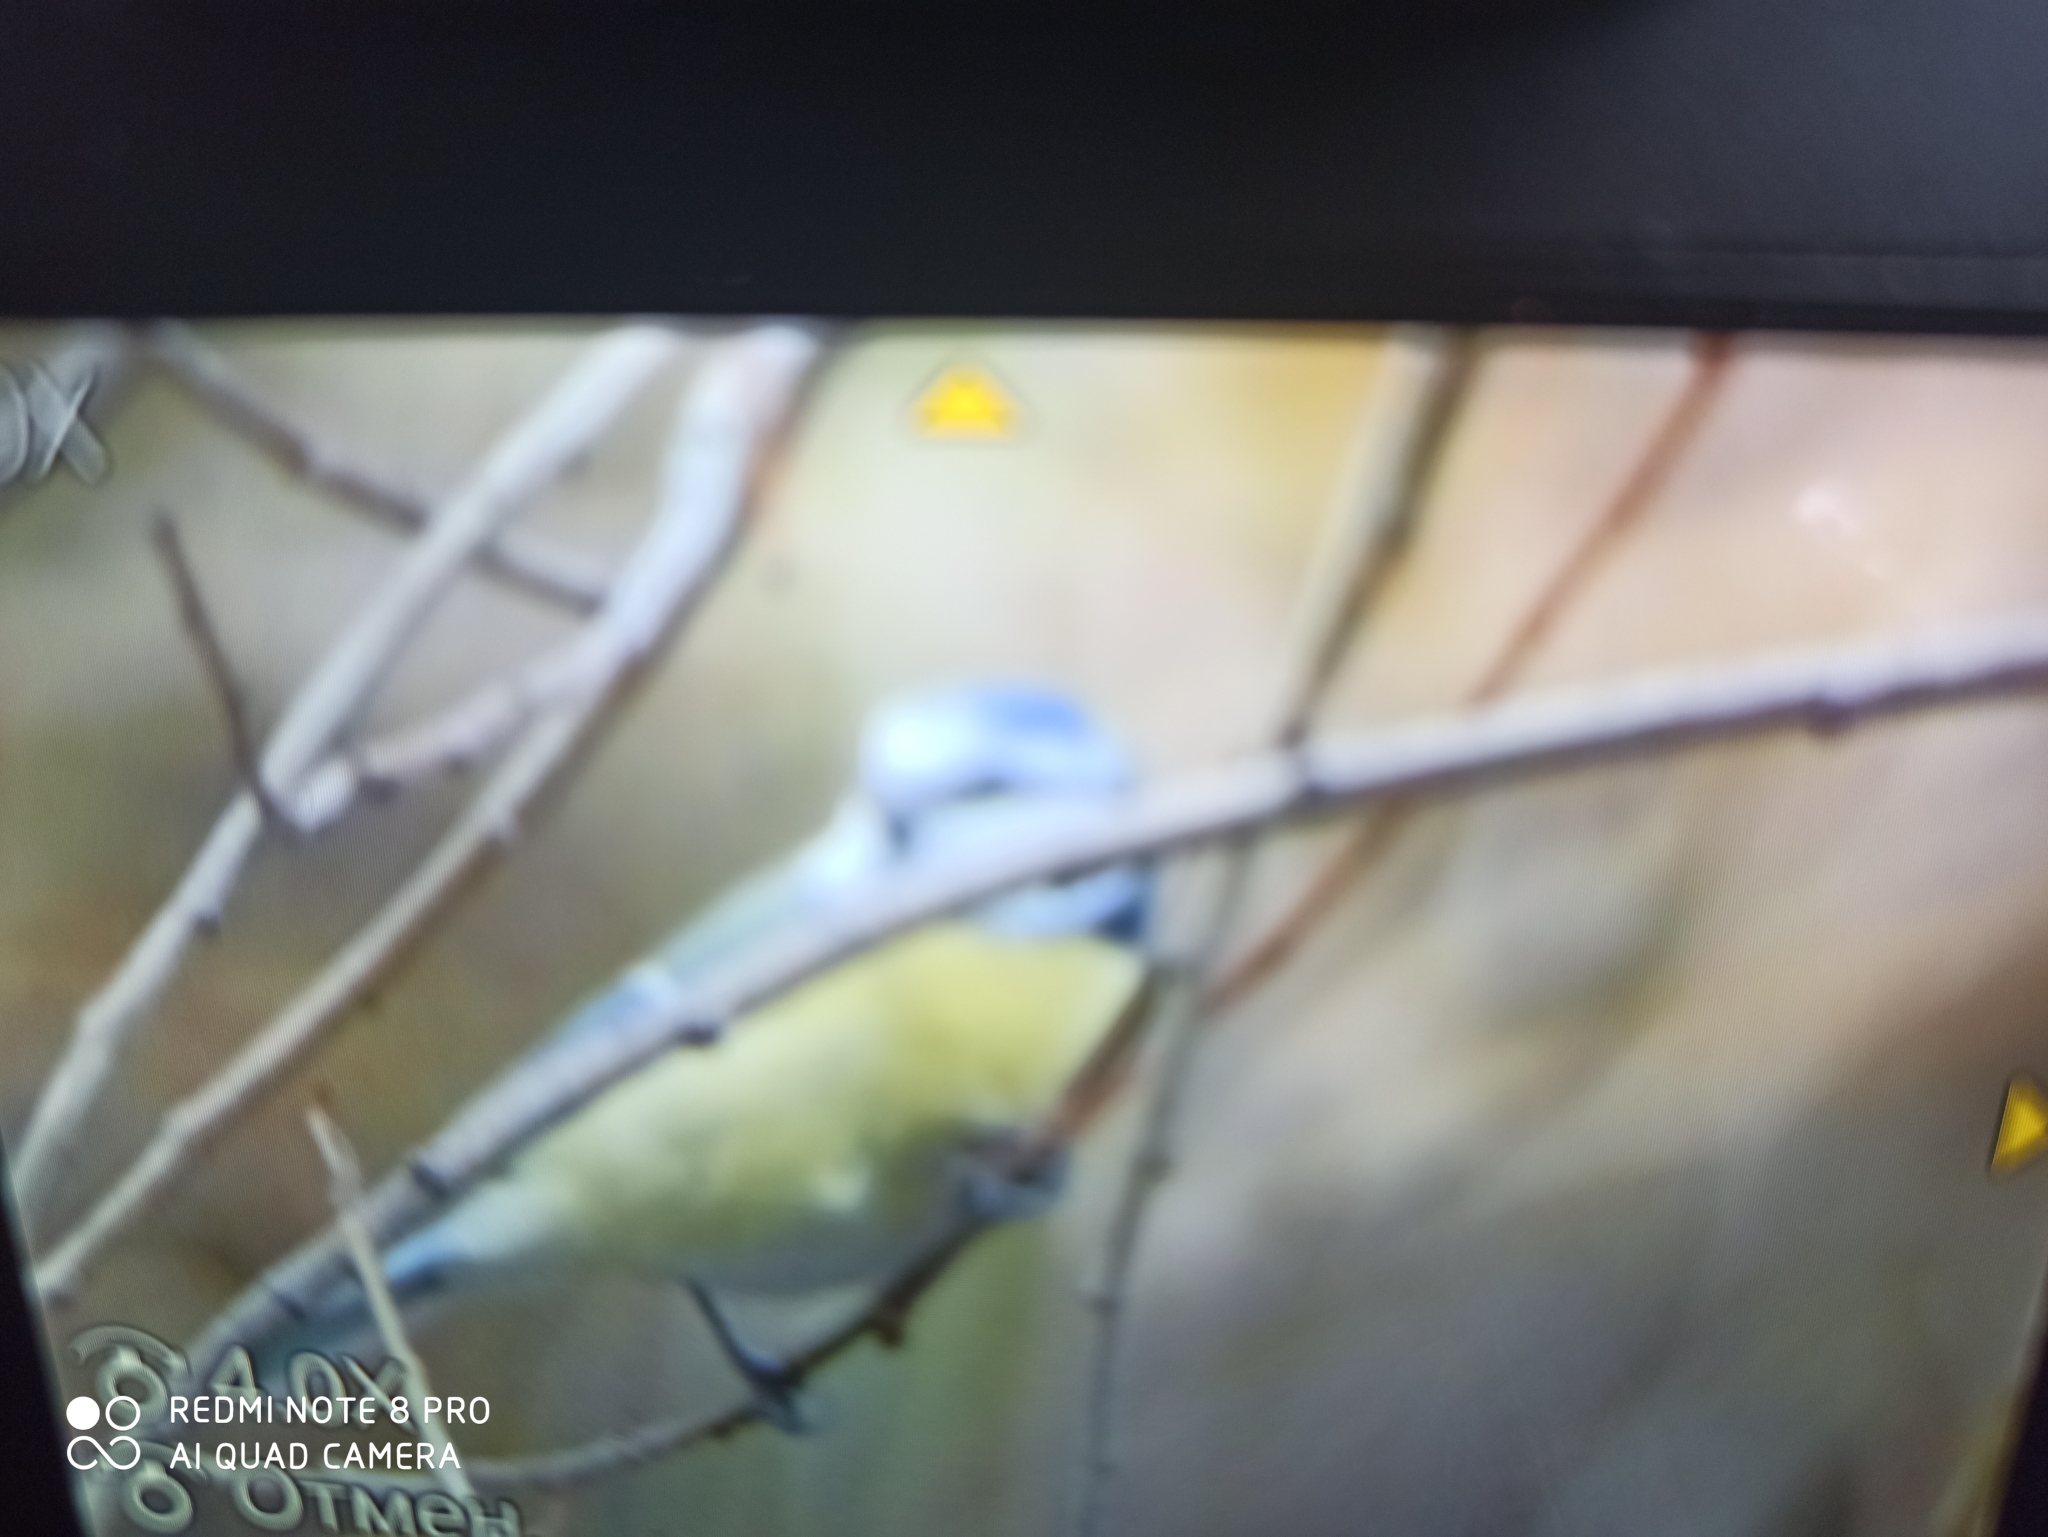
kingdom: Animalia
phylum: Chordata
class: Aves
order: Passeriformes
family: Paridae
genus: Cyanistes
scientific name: Cyanistes caeruleus
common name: Eurasian blue tit
